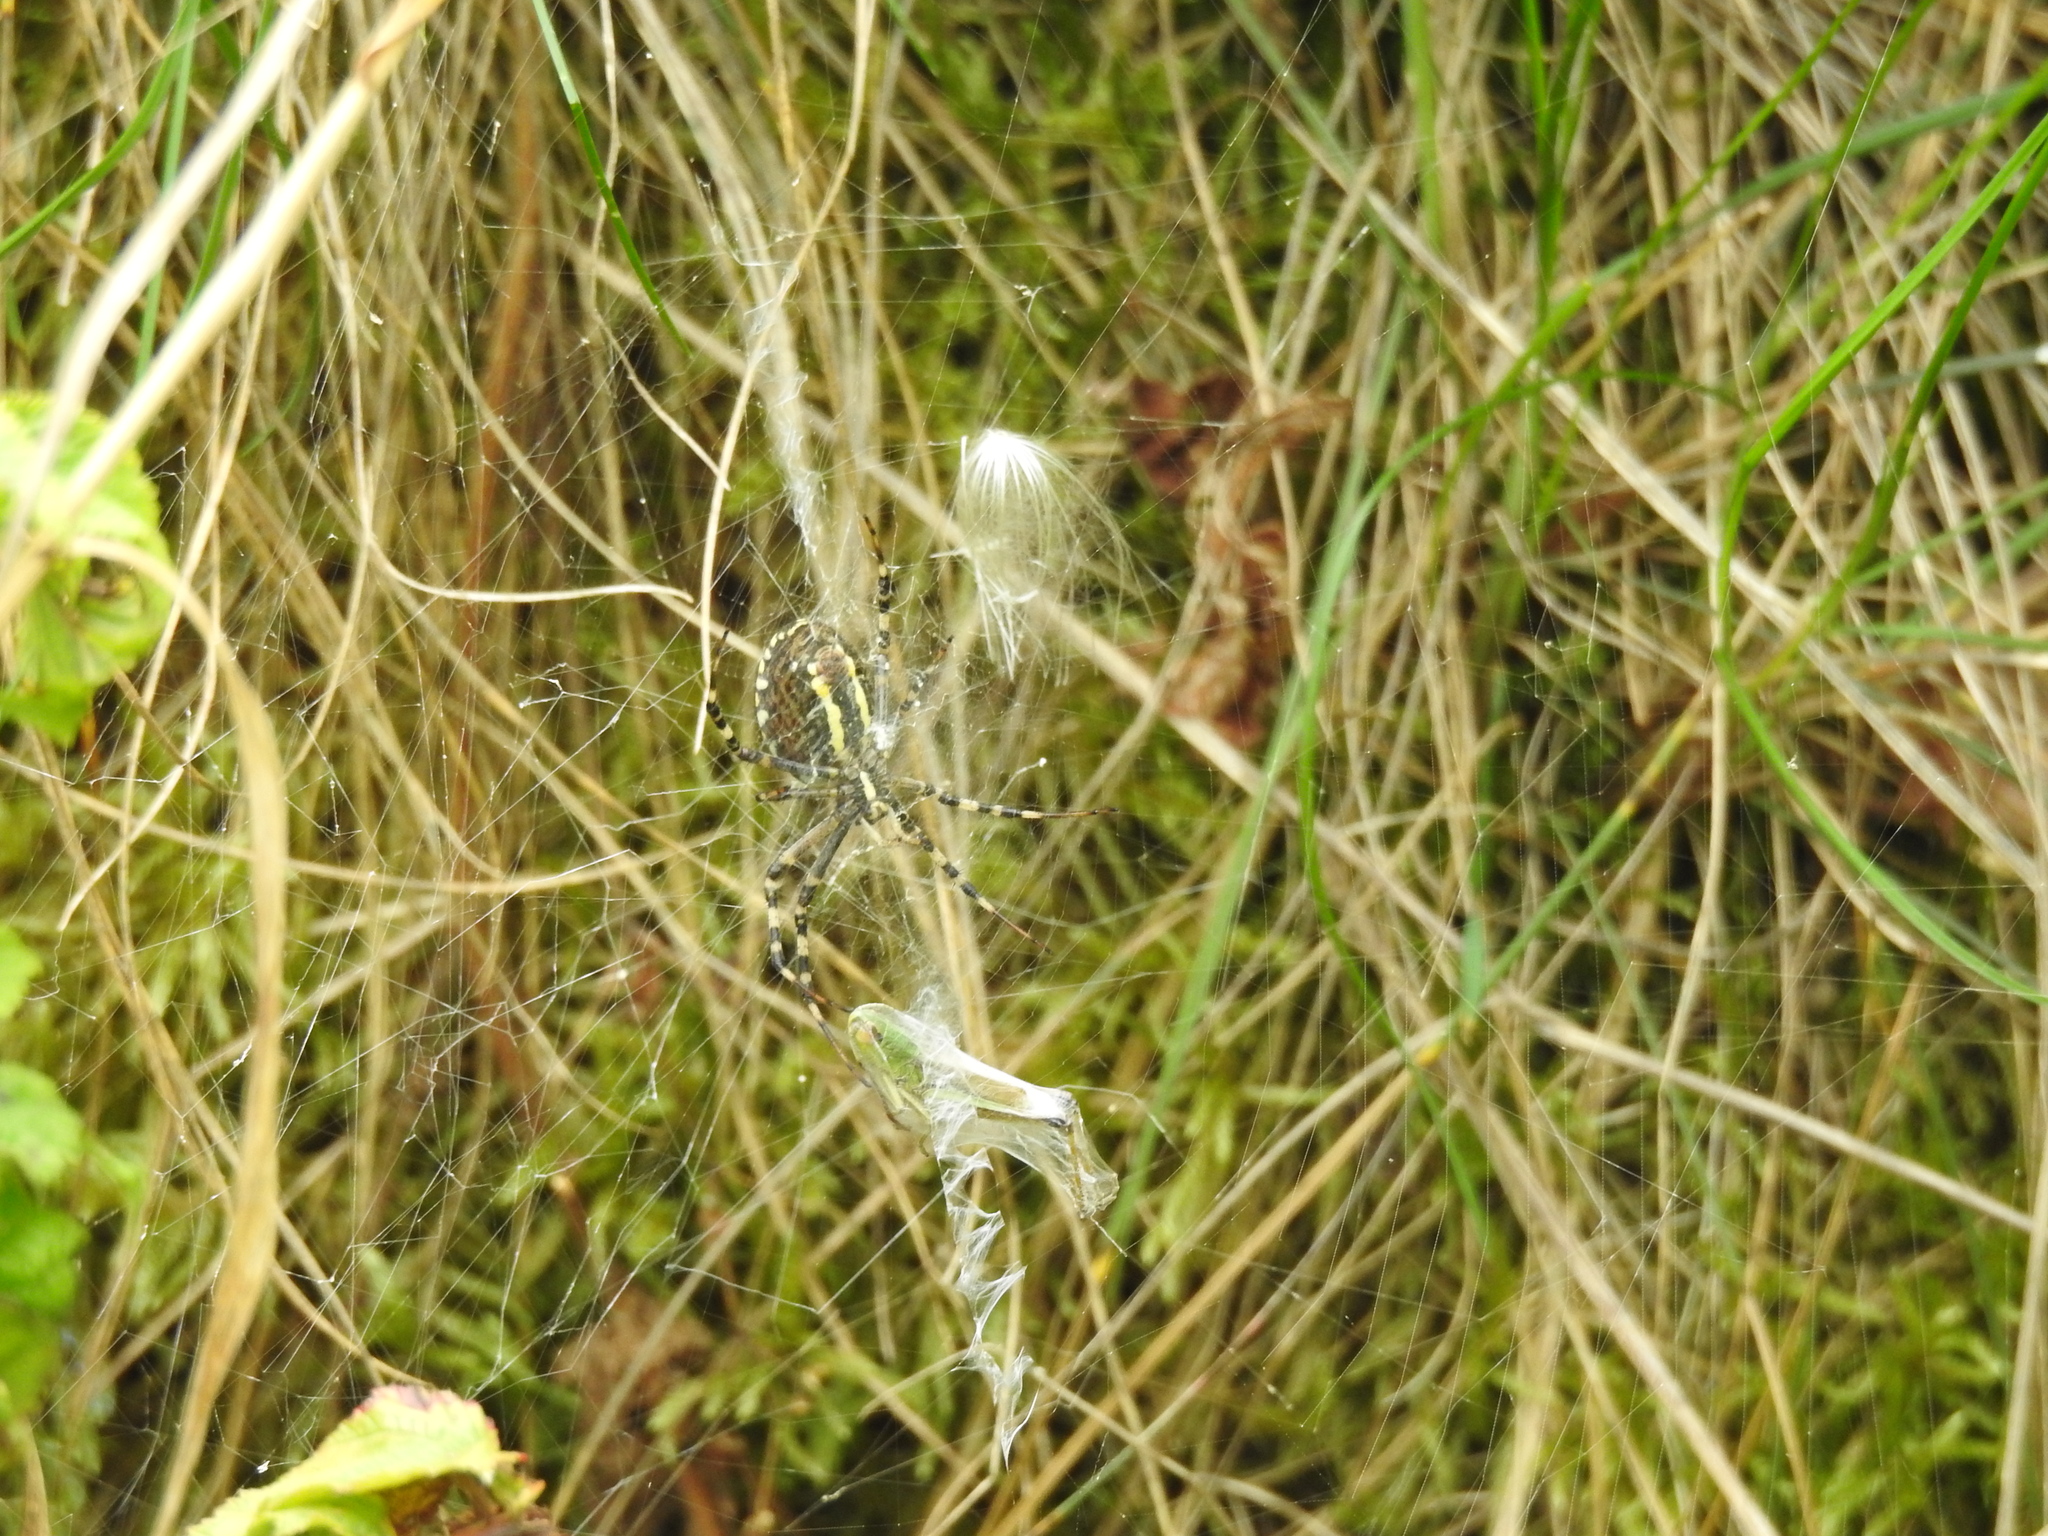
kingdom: Animalia
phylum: Arthropoda
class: Arachnida
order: Araneae
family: Araneidae
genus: Argiope
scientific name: Argiope bruennichi
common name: Wasp spider
